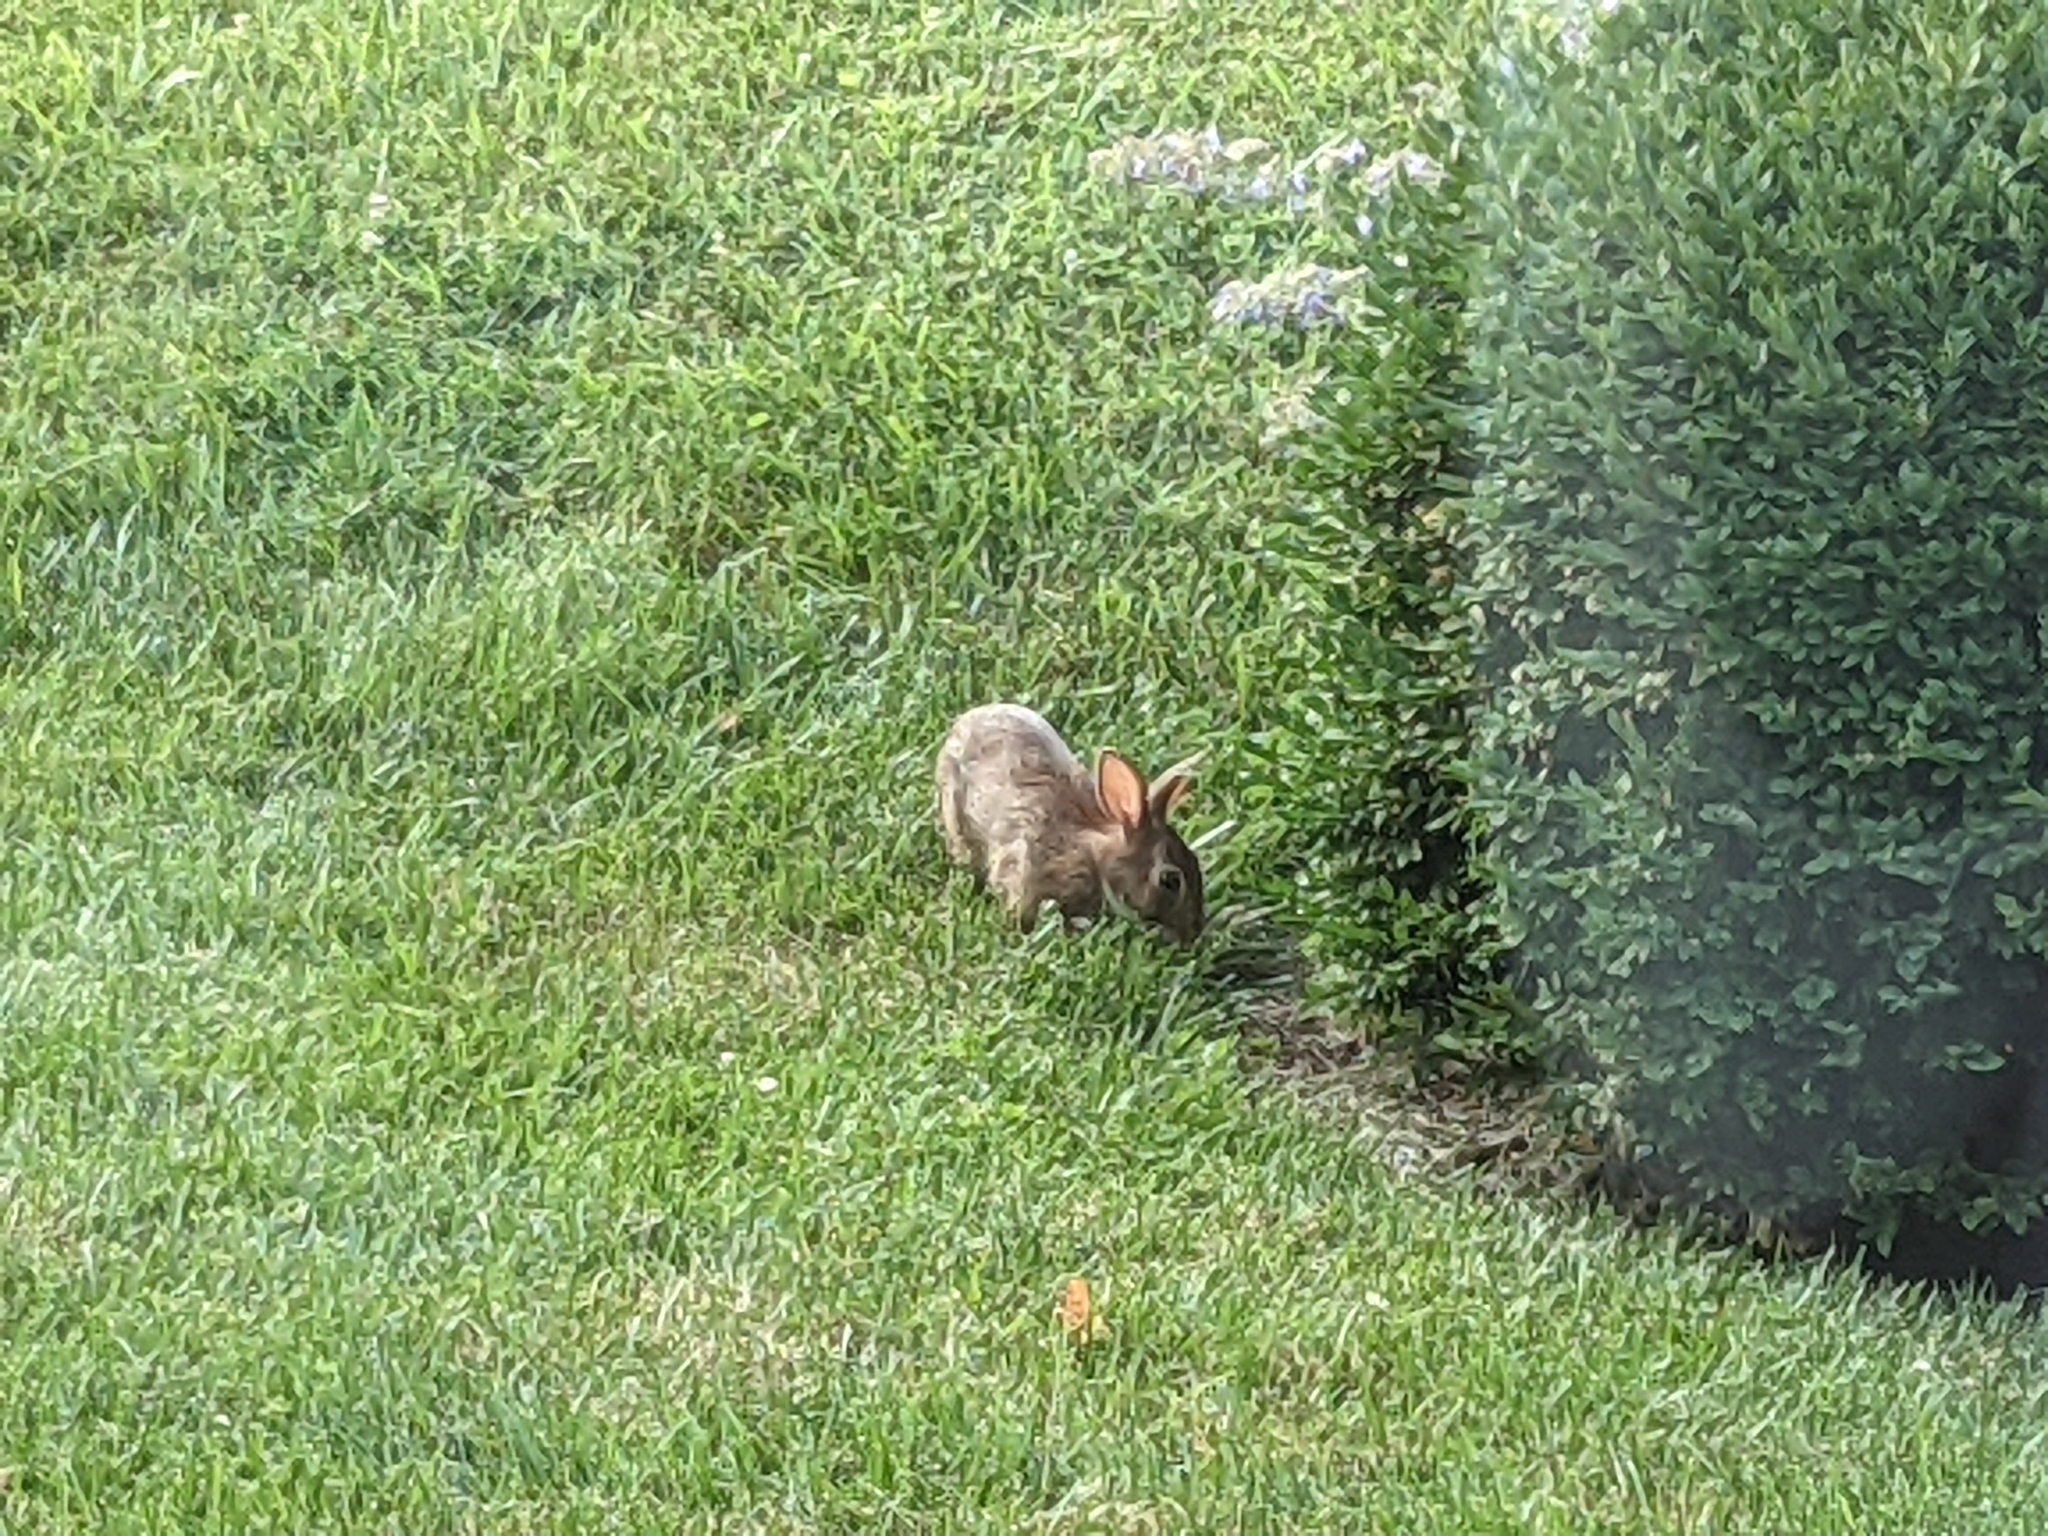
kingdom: Animalia
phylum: Chordata
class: Mammalia
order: Lagomorpha
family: Leporidae
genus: Sylvilagus
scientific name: Sylvilagus floridanus
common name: Eastern cottontail
